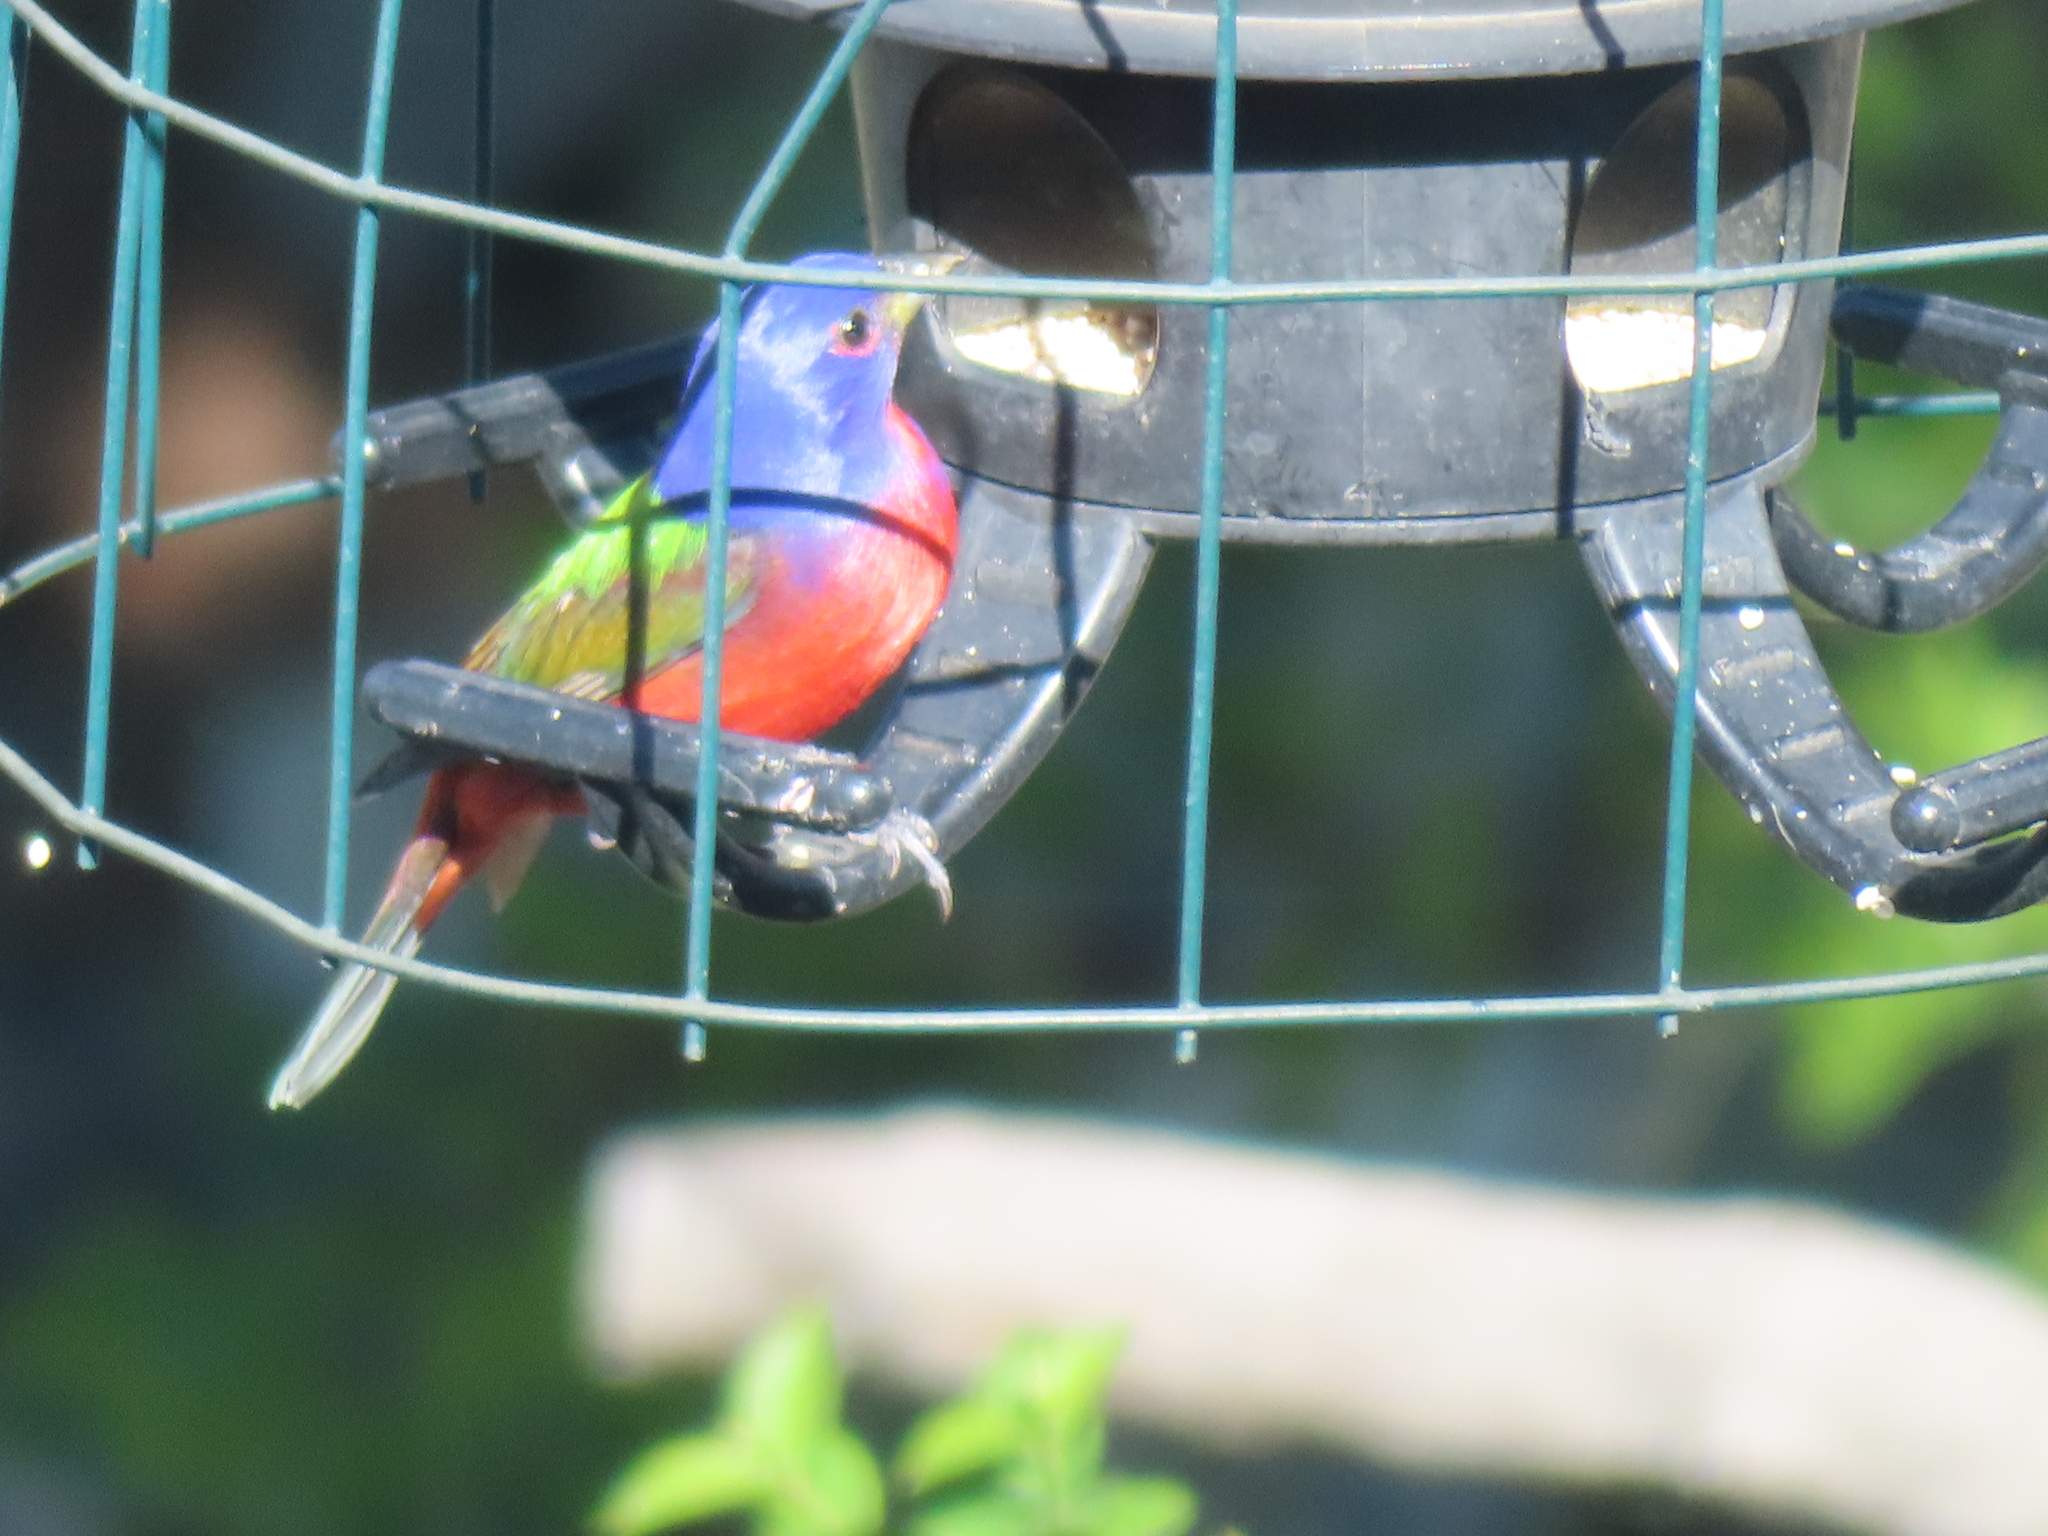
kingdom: Animalia
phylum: Chordata
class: Aves
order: Passeriformes
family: Cardinalidae
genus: Passerina
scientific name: Passerina ciris
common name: Painted bunting
